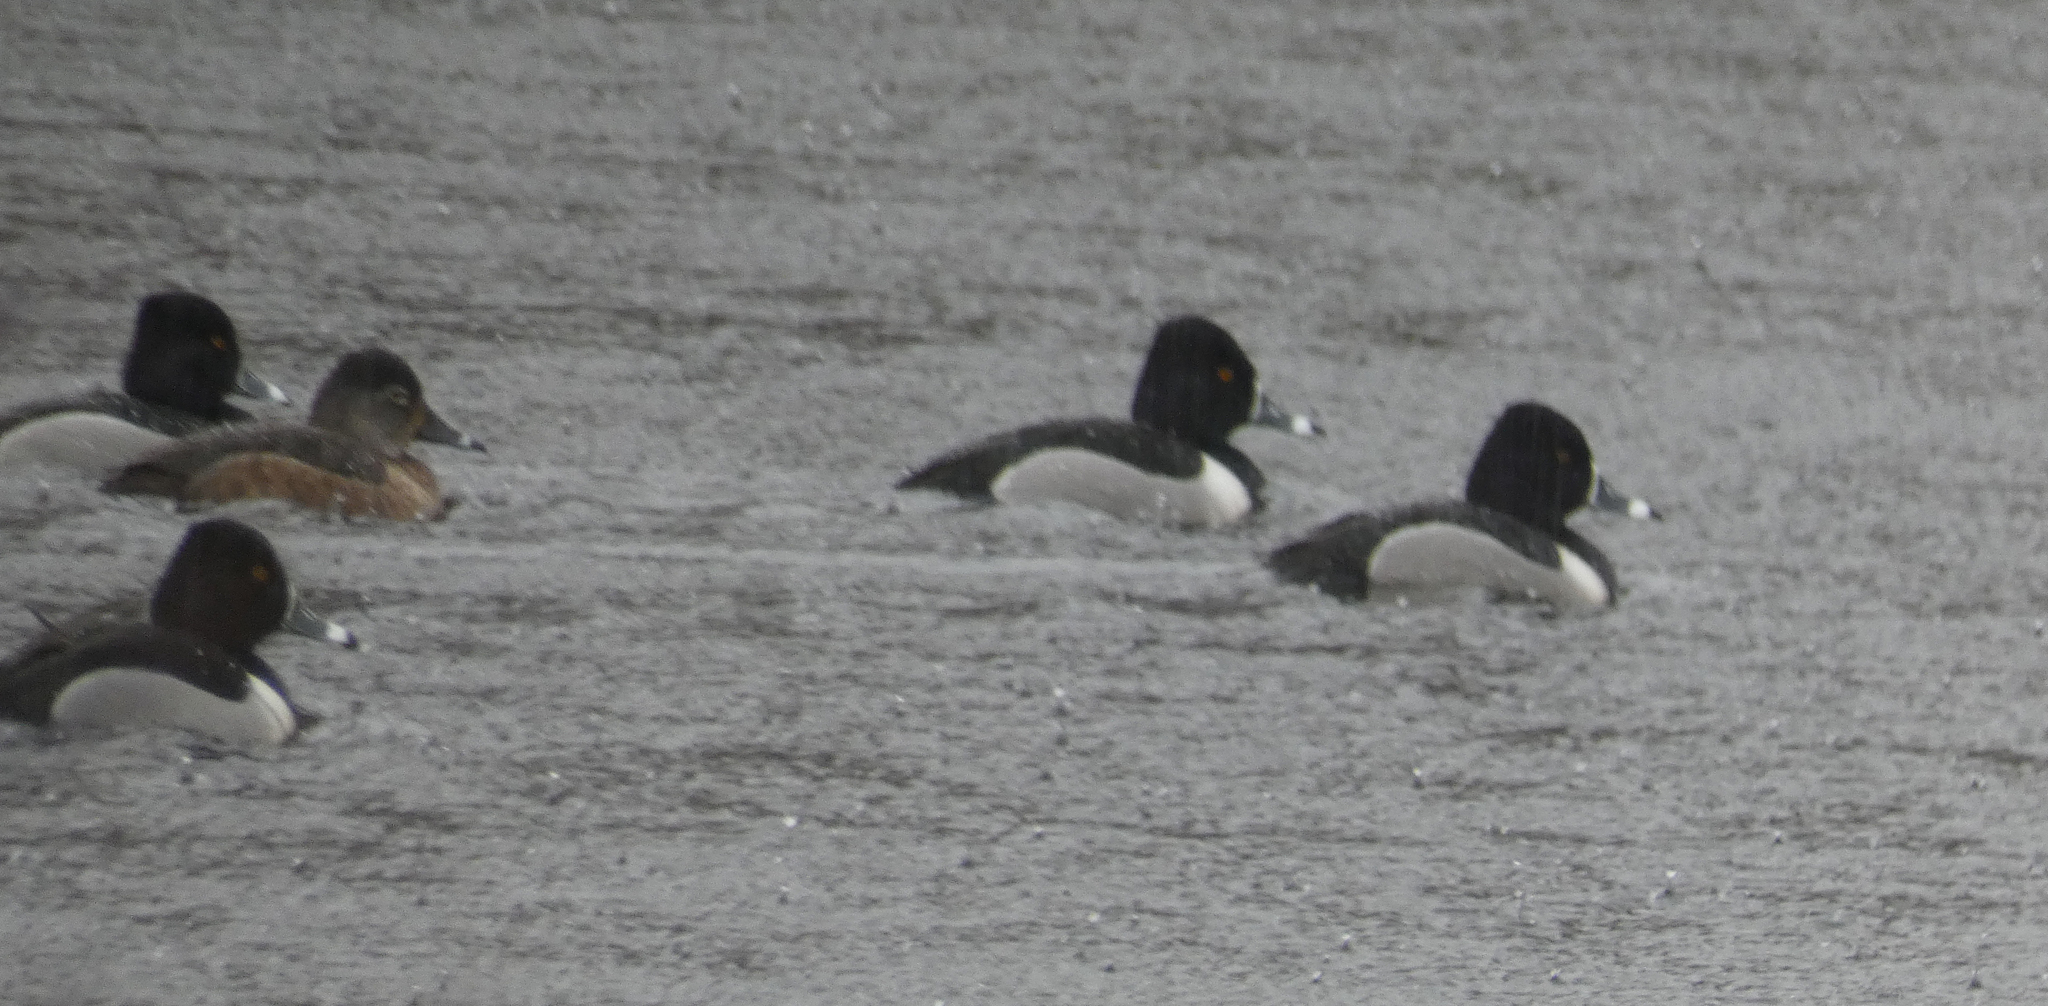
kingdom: Animalia
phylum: Chordata
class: Aves
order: Anseriformes
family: Anatidae
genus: Aythya
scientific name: Aythya collaris
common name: Ring-necked duck
